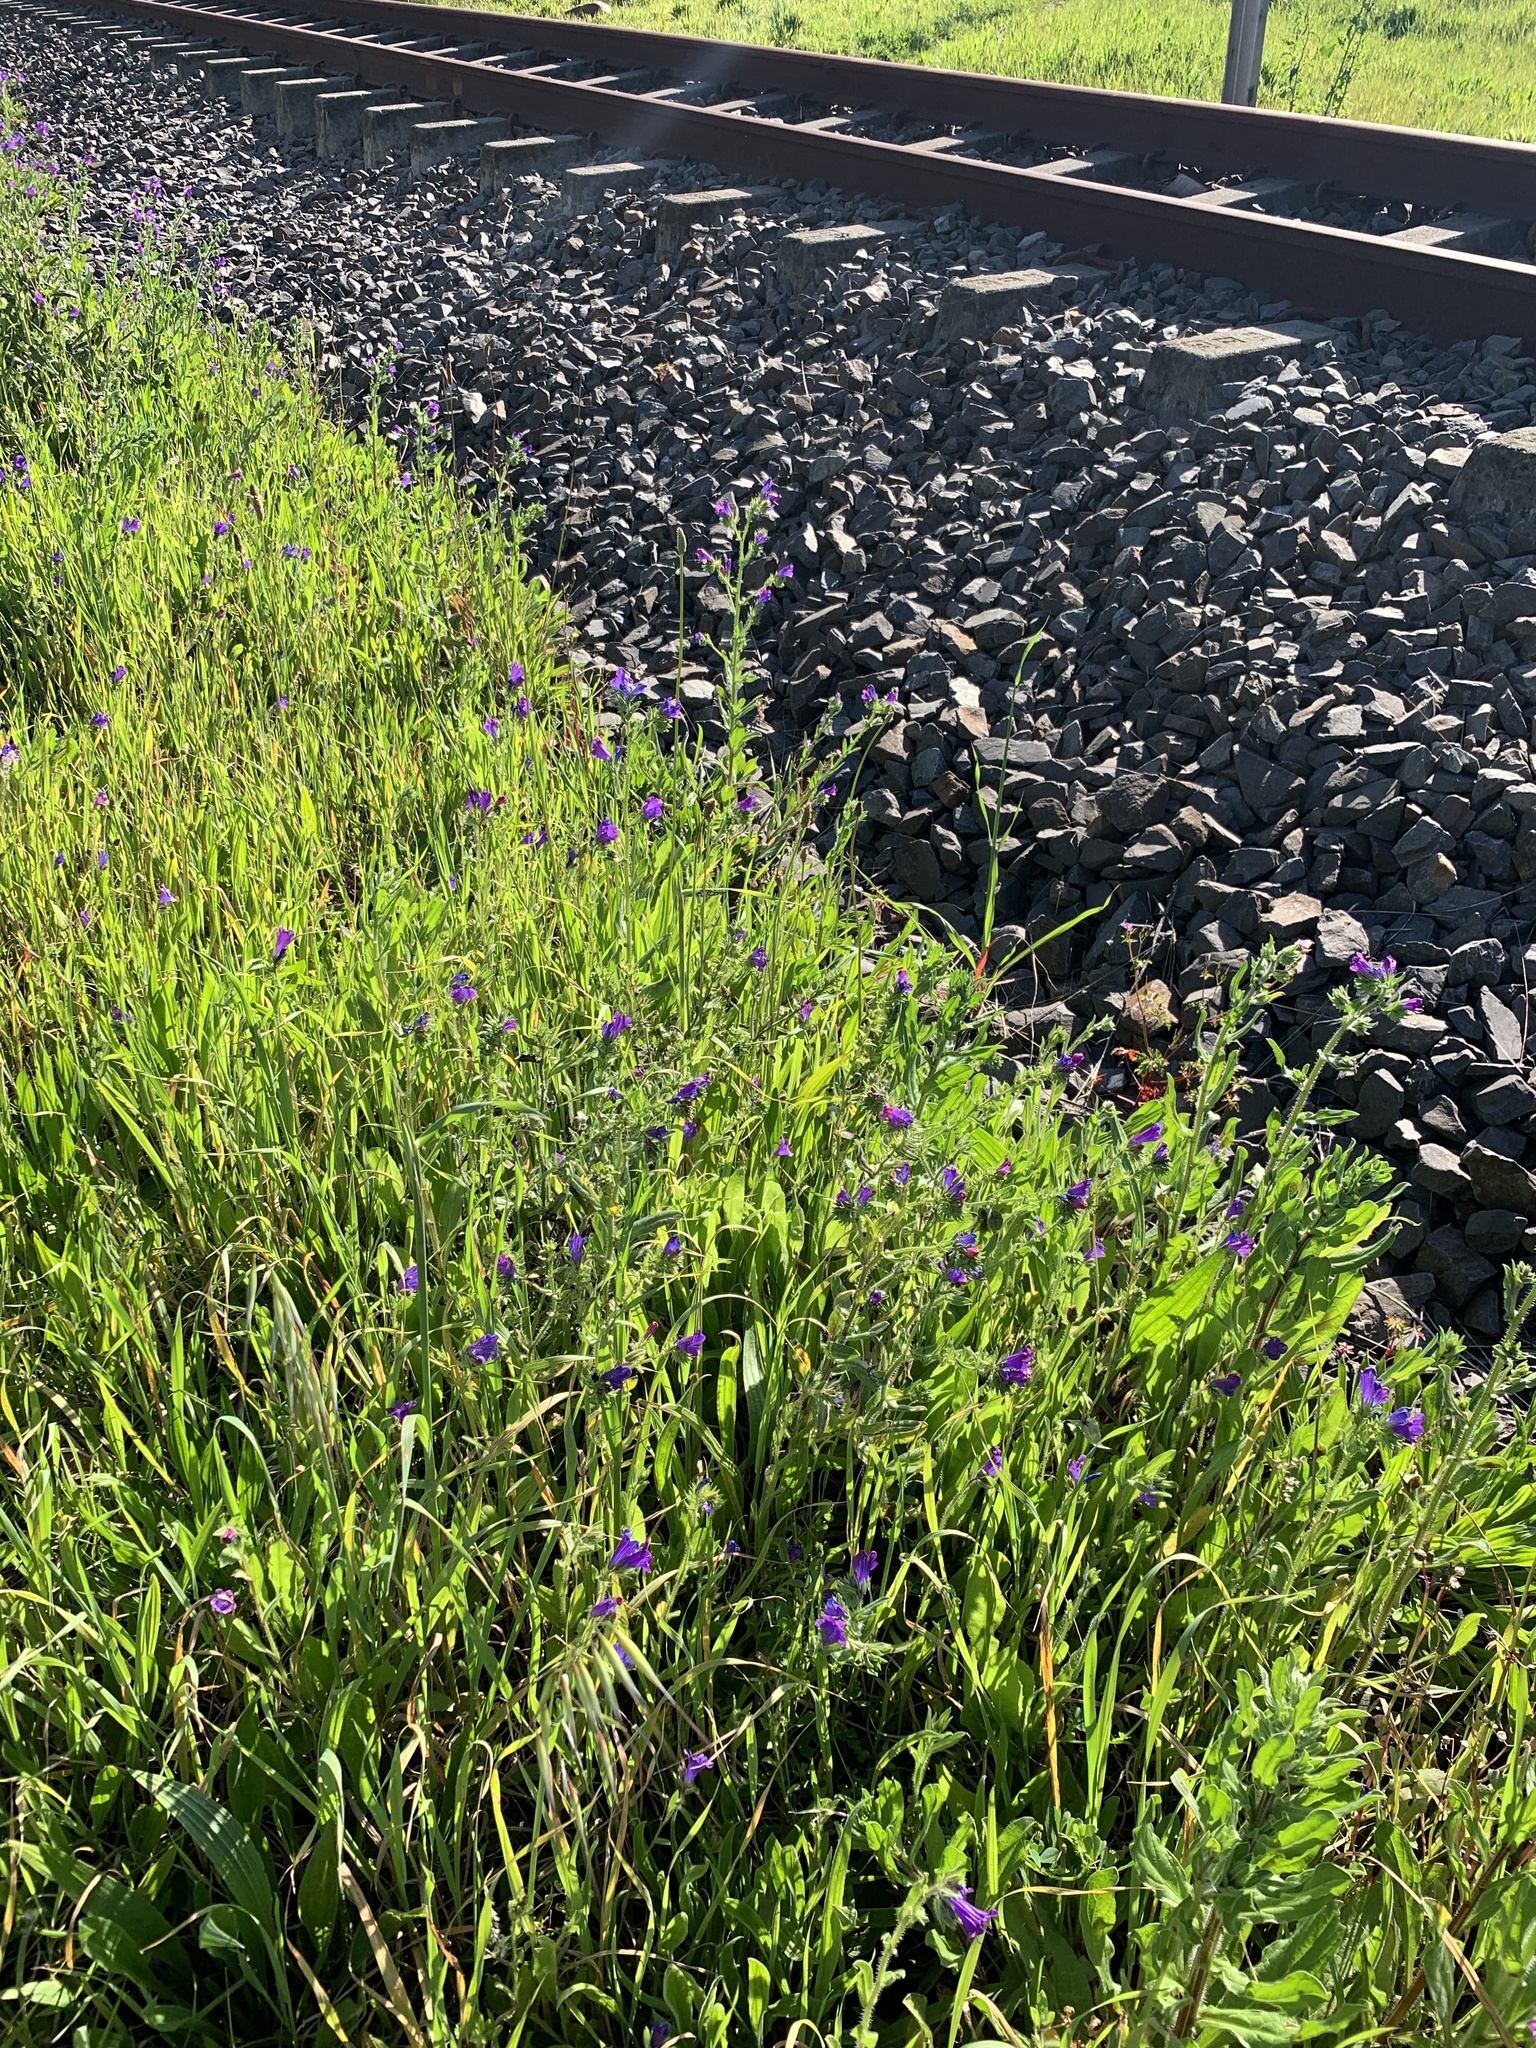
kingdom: Plantae
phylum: Tracheophyta
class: Magnoliopsida
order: Boraginales
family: Boraginaceae
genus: Echium
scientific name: Echium plantagineum
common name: Purple viper's-bugloss
